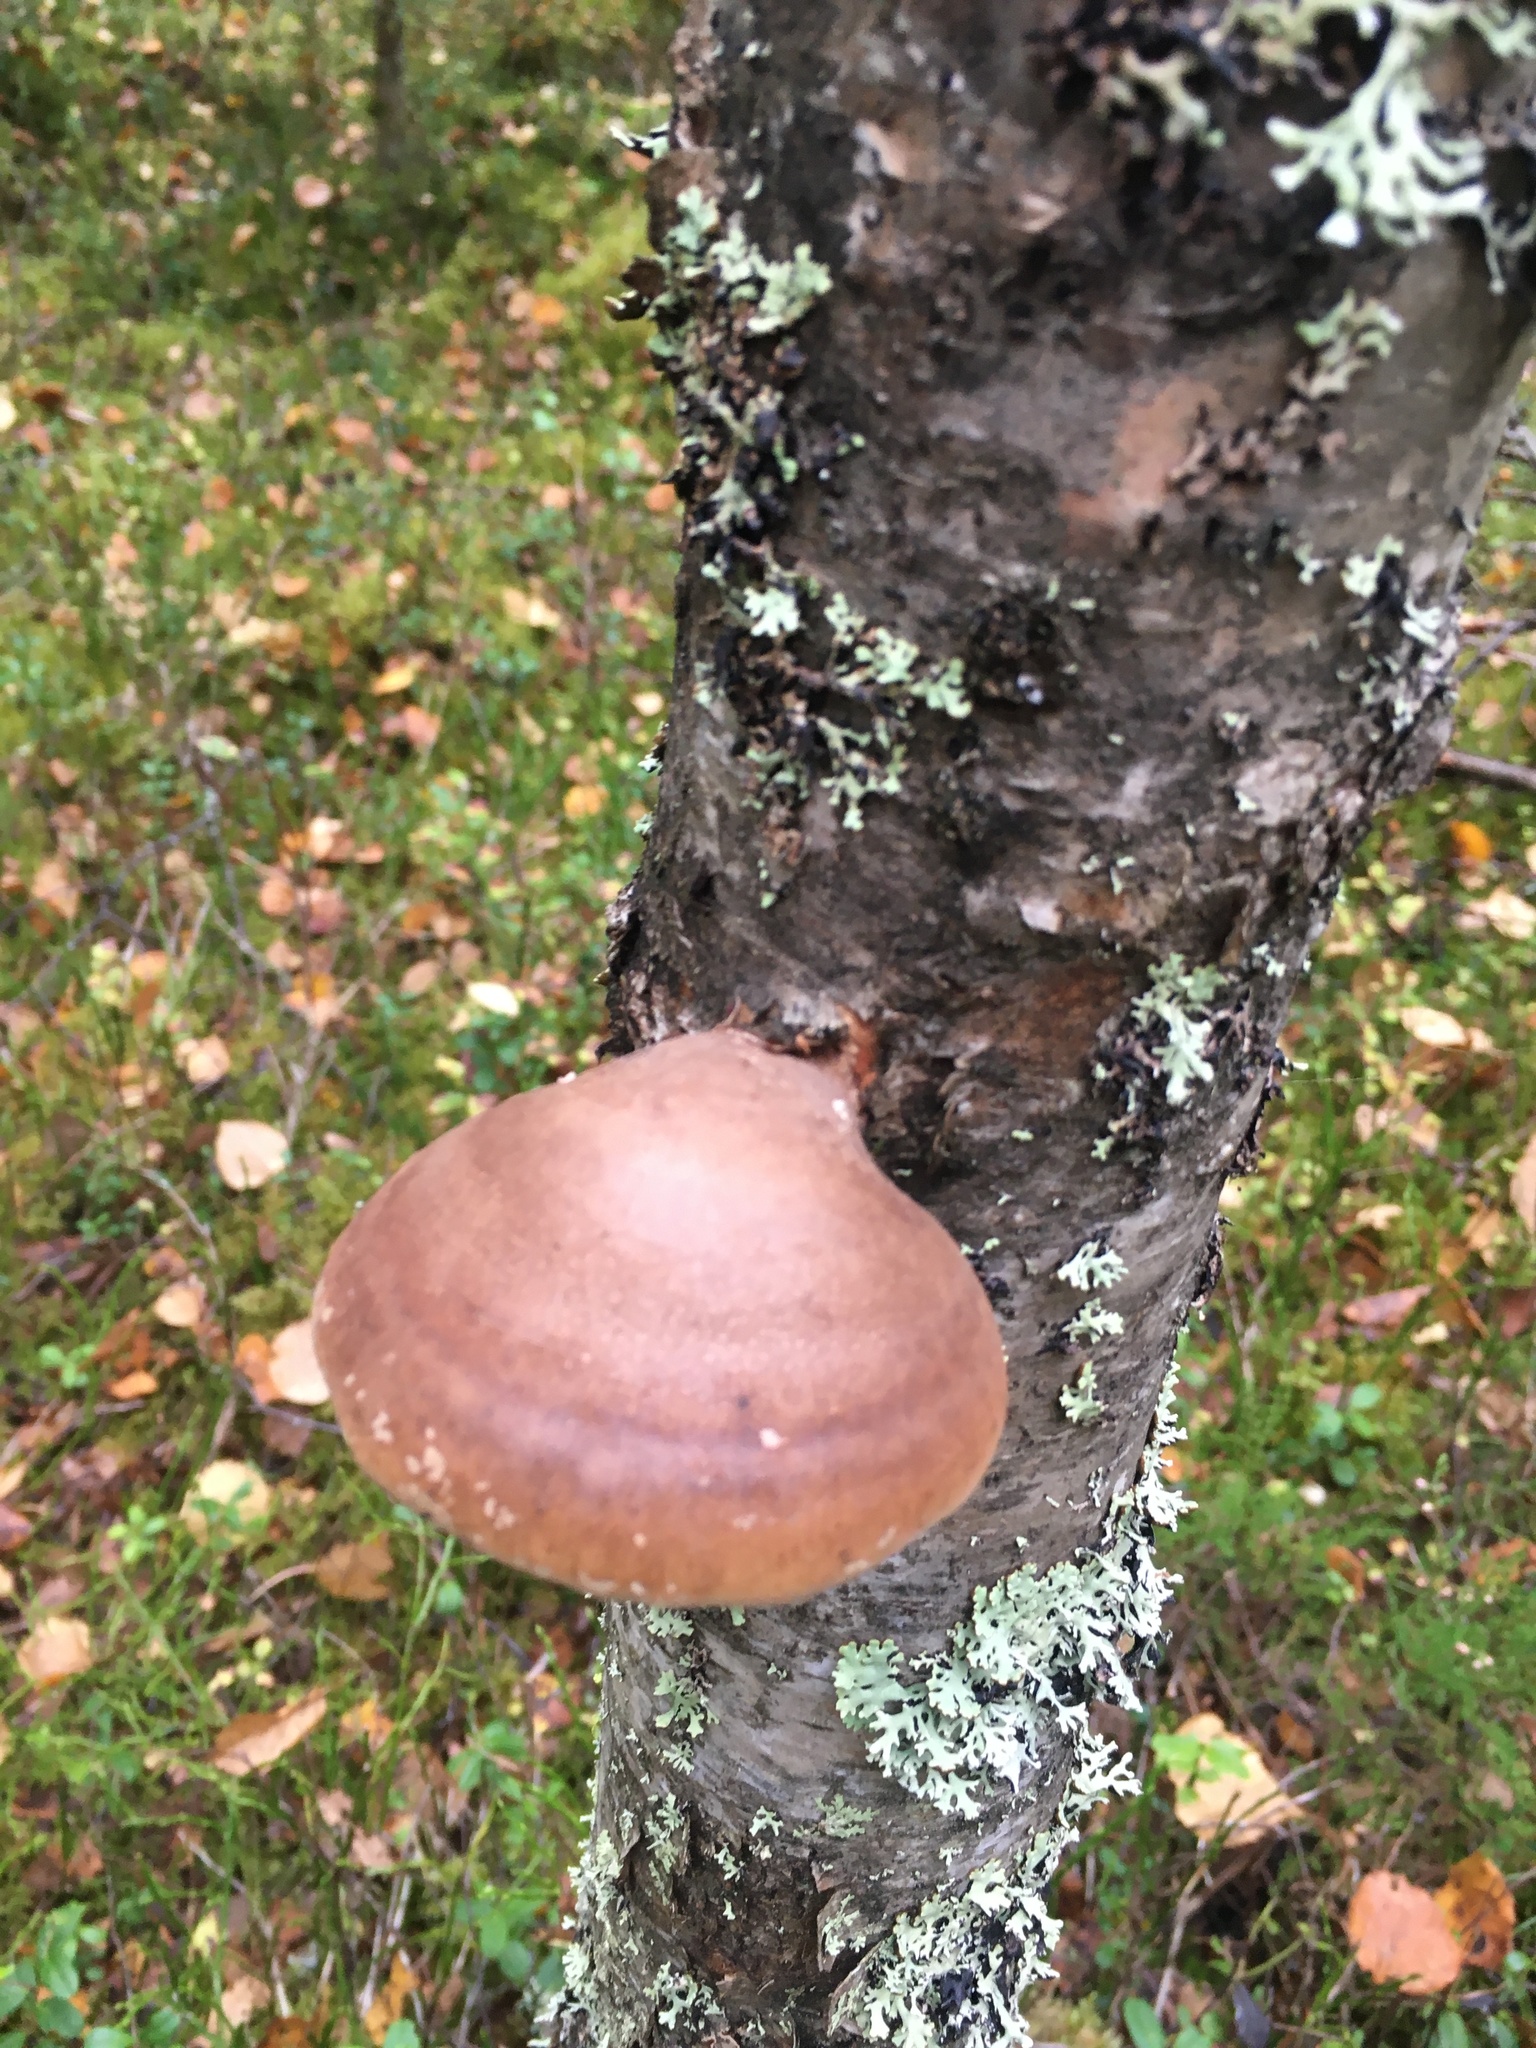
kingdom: Fungi
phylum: Basidiomycota
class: Agaricomycetes
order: Polyporales
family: Fomitopsidaceae
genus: Fomitopsis
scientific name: Fomitopsis betulina
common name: Birch polypore
